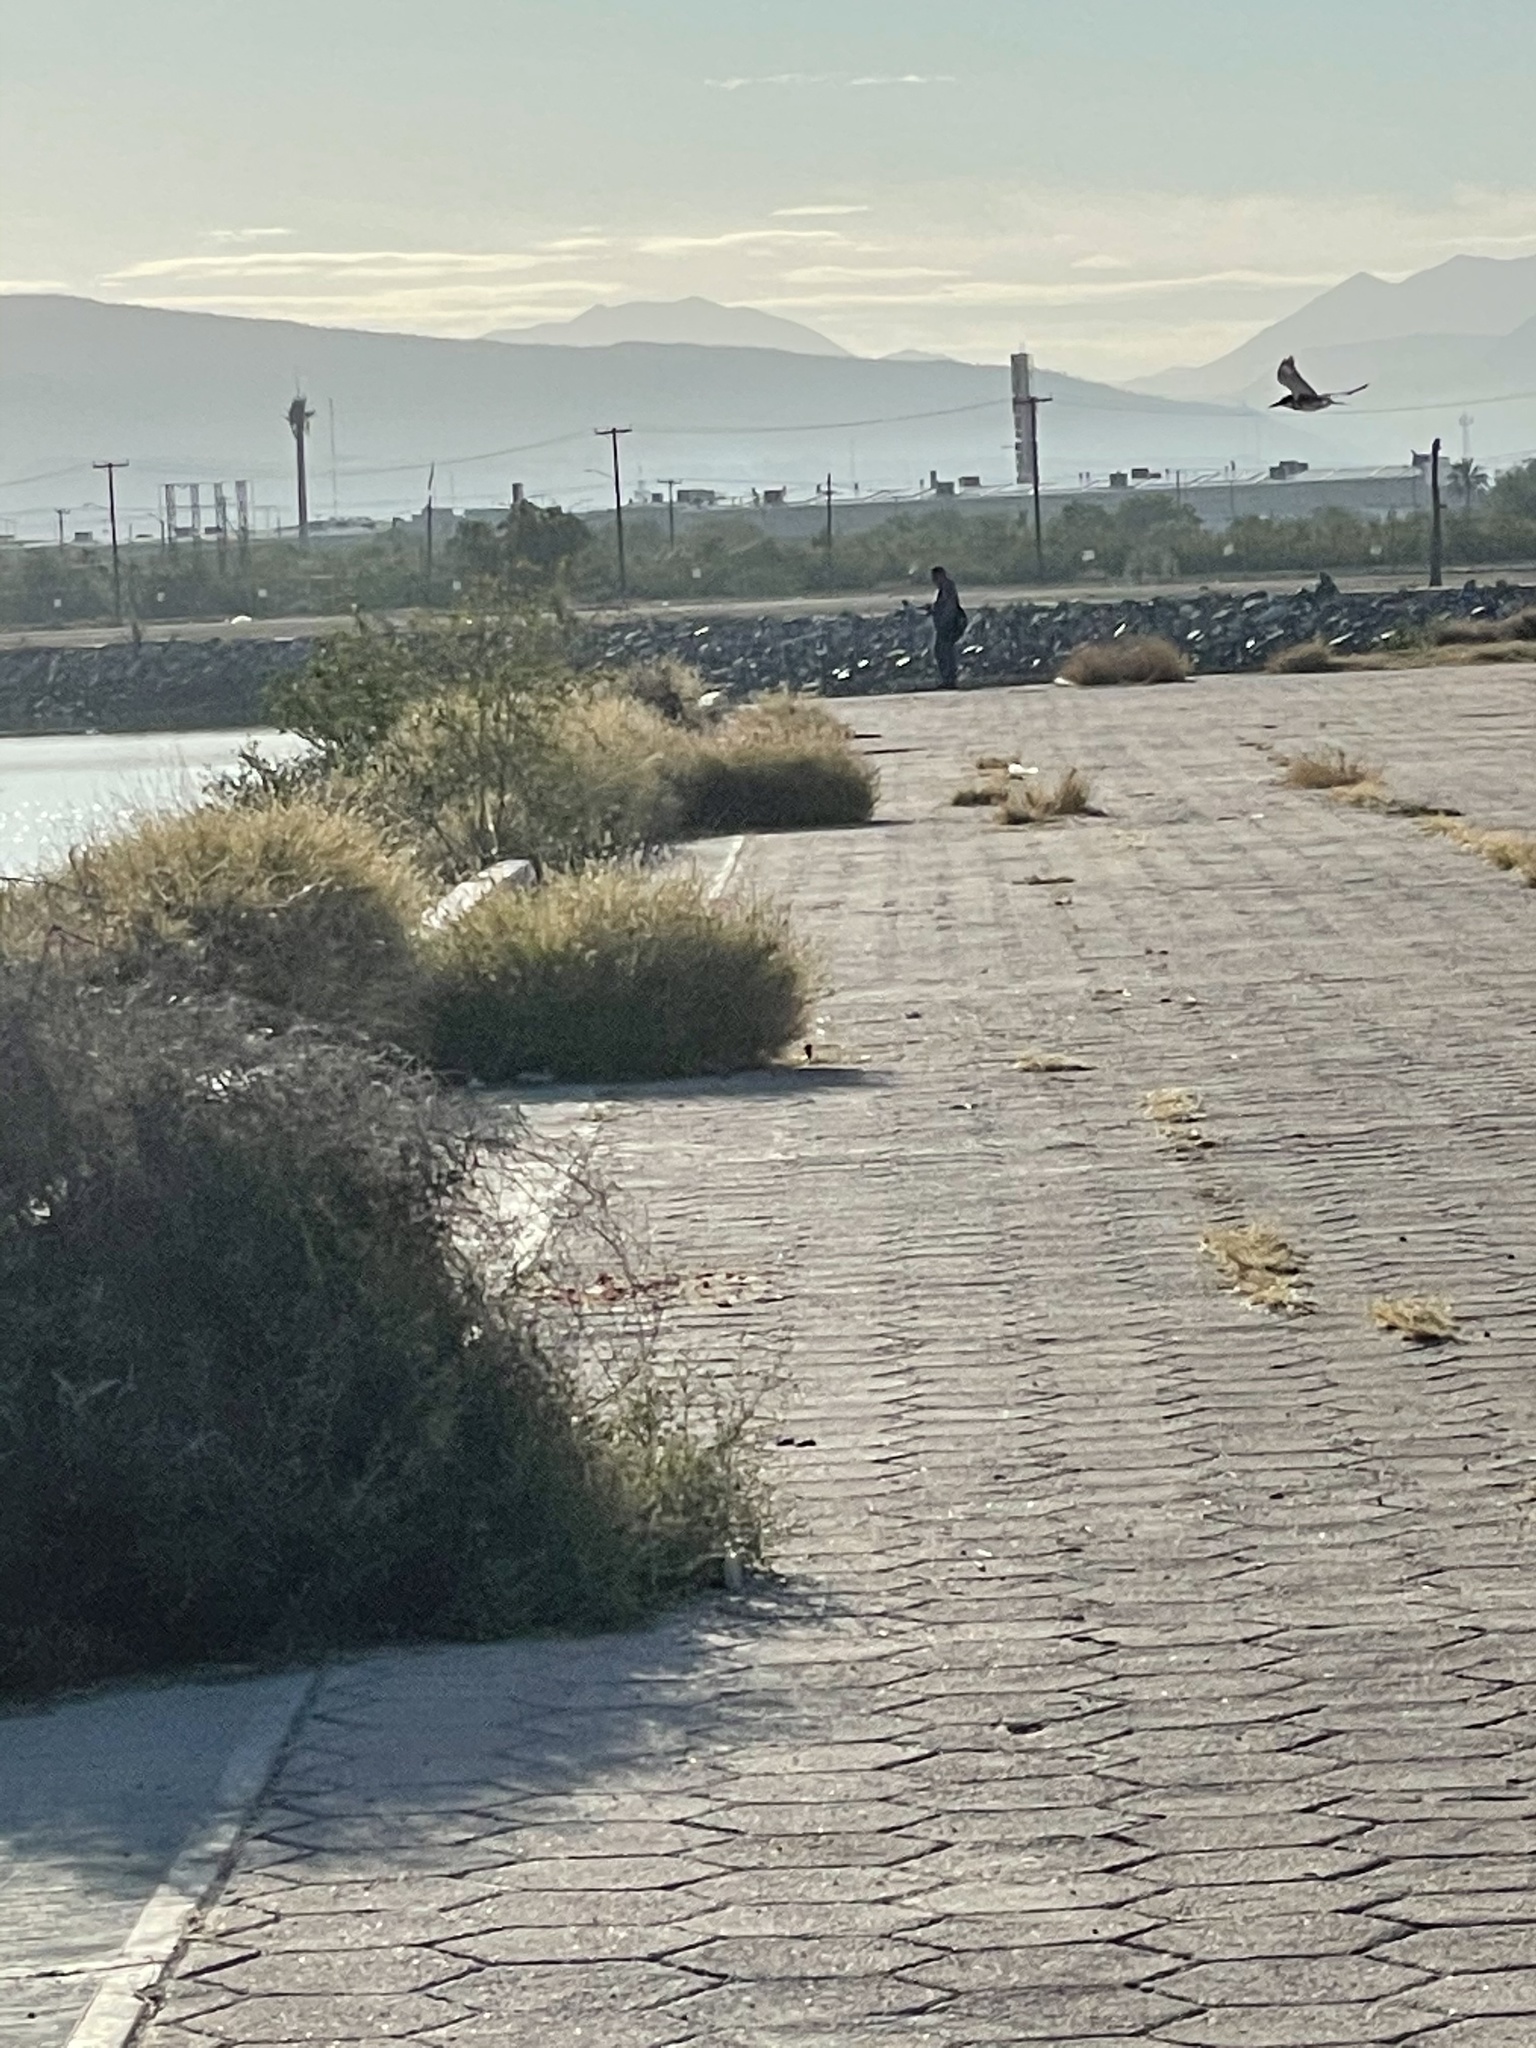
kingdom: Animalia
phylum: Chordata
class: Aves
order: Coraciiformes
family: Alcedinidae
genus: Megaceryle
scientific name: Megaceryle alcyon
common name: Belted kingfisher
